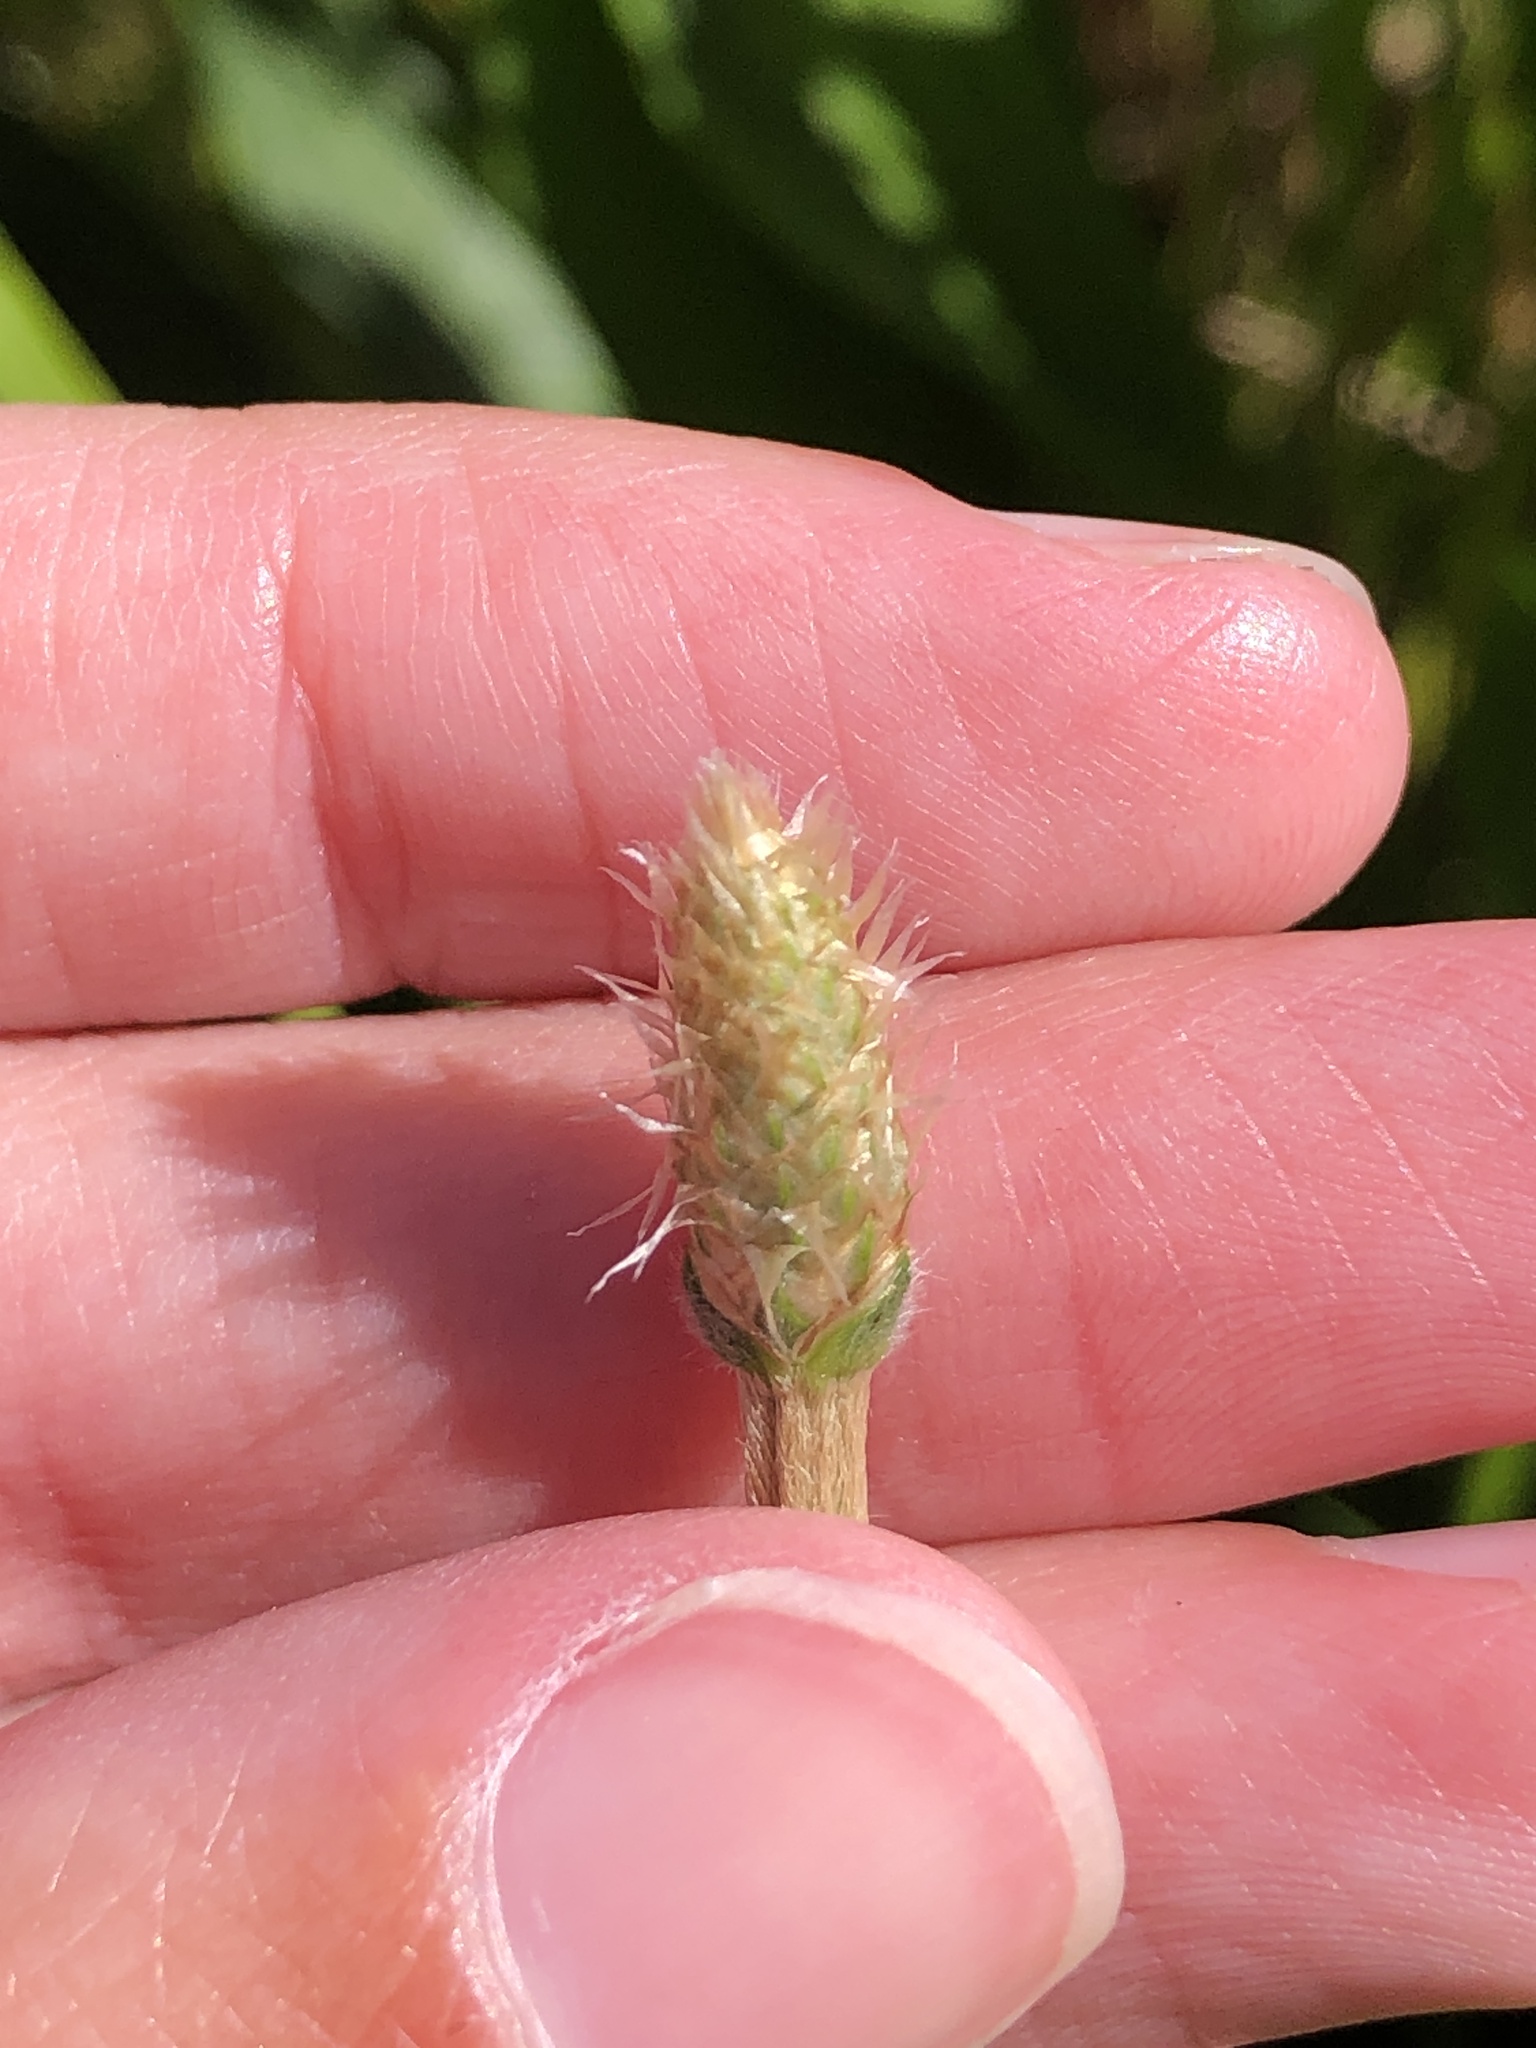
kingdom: Plantae
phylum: Tracheophyta
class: Magnoliopsida
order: Lamiales
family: Plantaginaceae
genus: Plantago
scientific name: Plantago lanceolata
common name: Ribwort plantain
